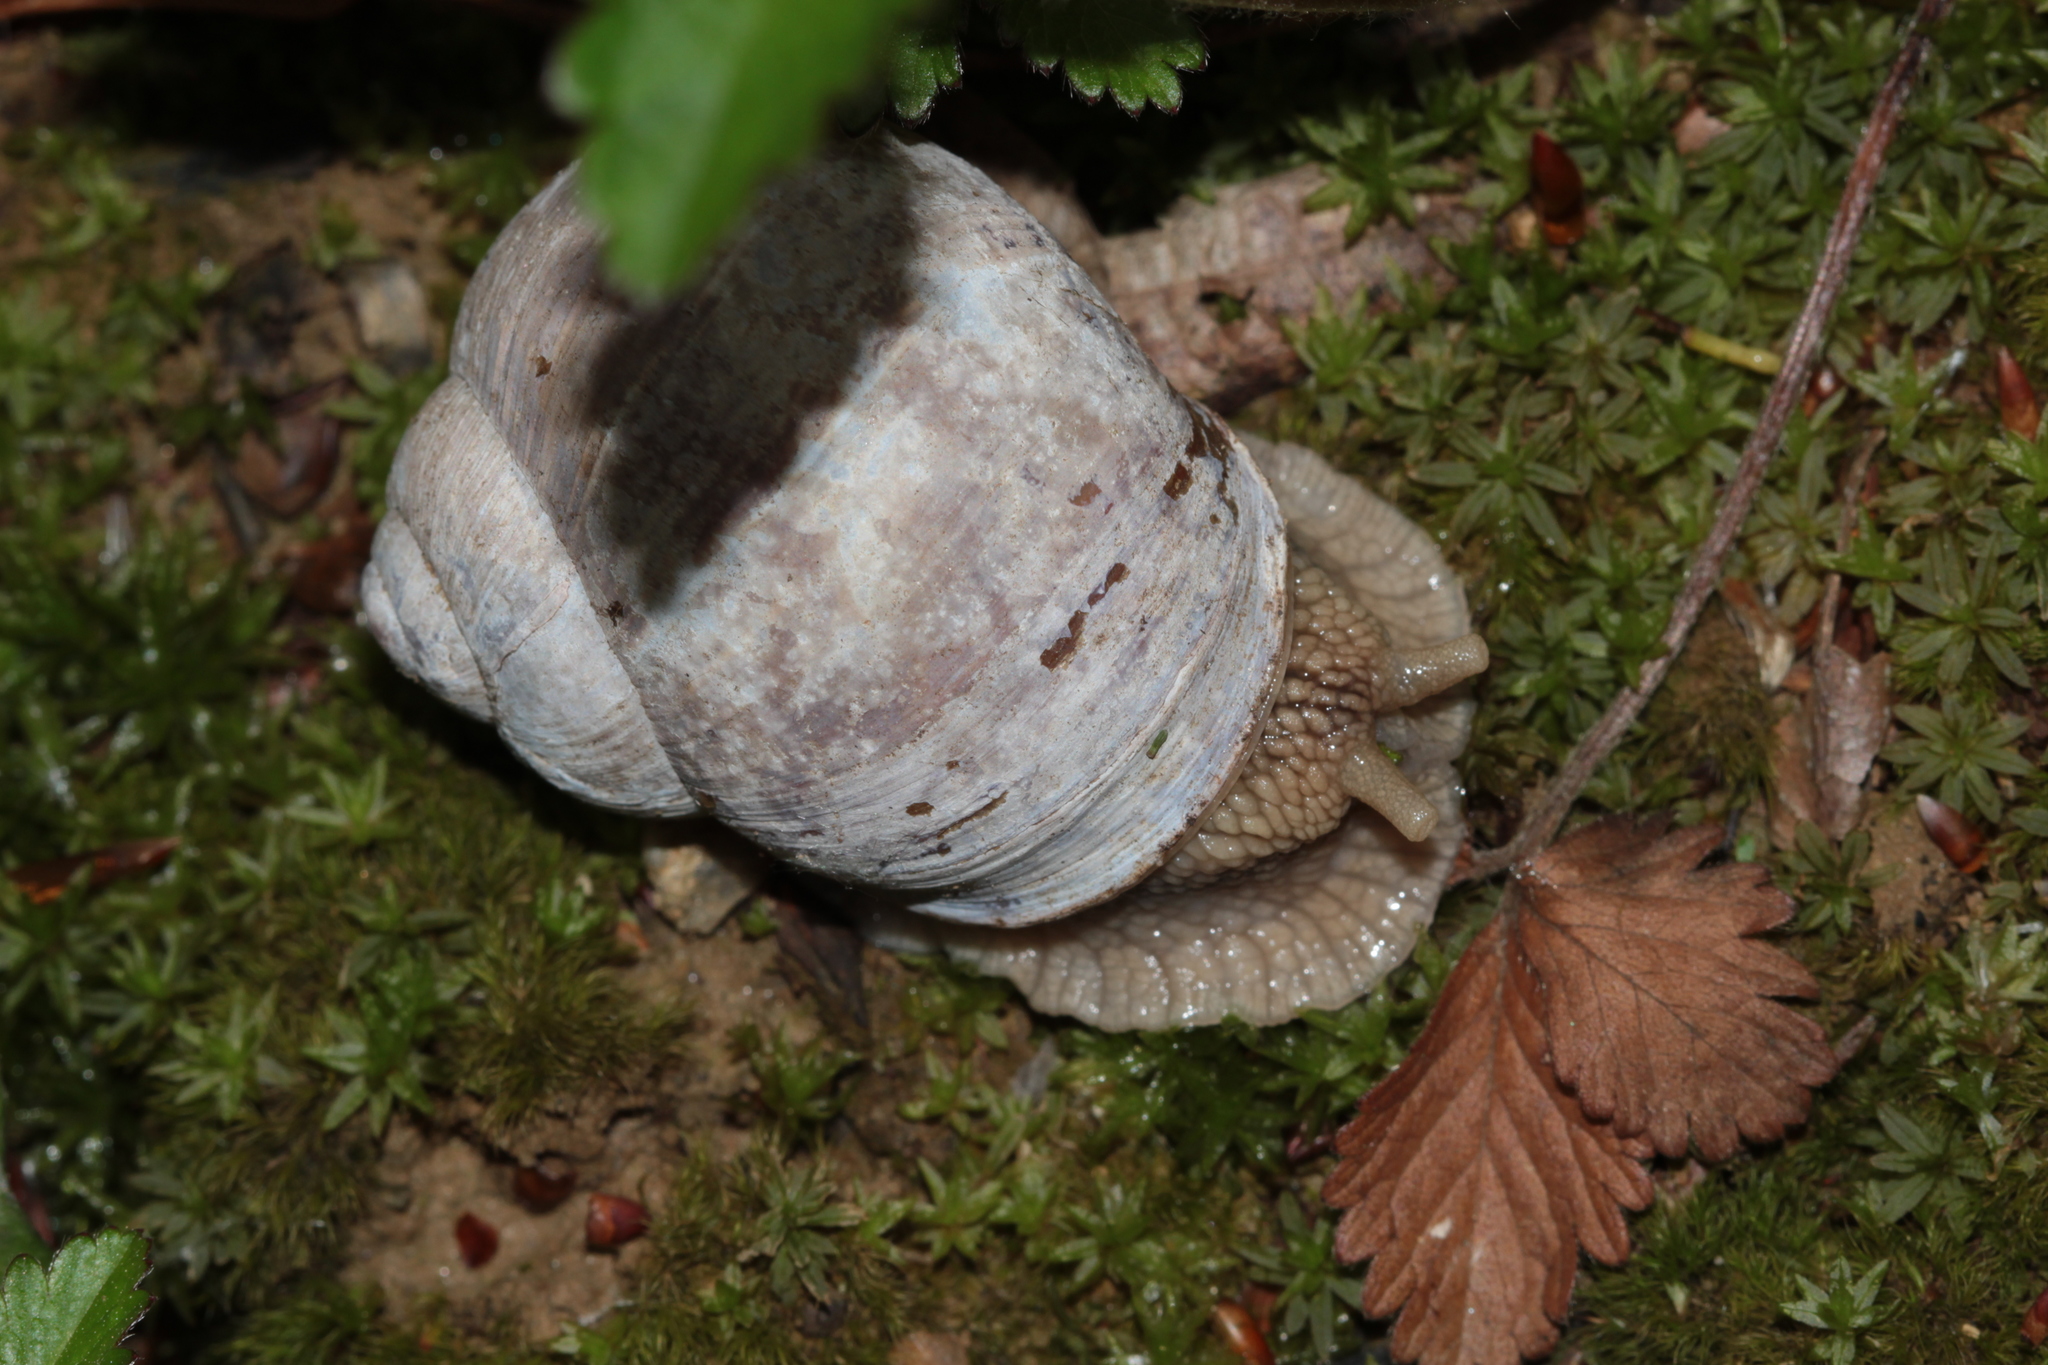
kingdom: Animalia
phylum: Mollusca
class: Gastropoda
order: Stylommatophora
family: Helicidae
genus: Helix
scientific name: Helix pomatia
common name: Roman snail
